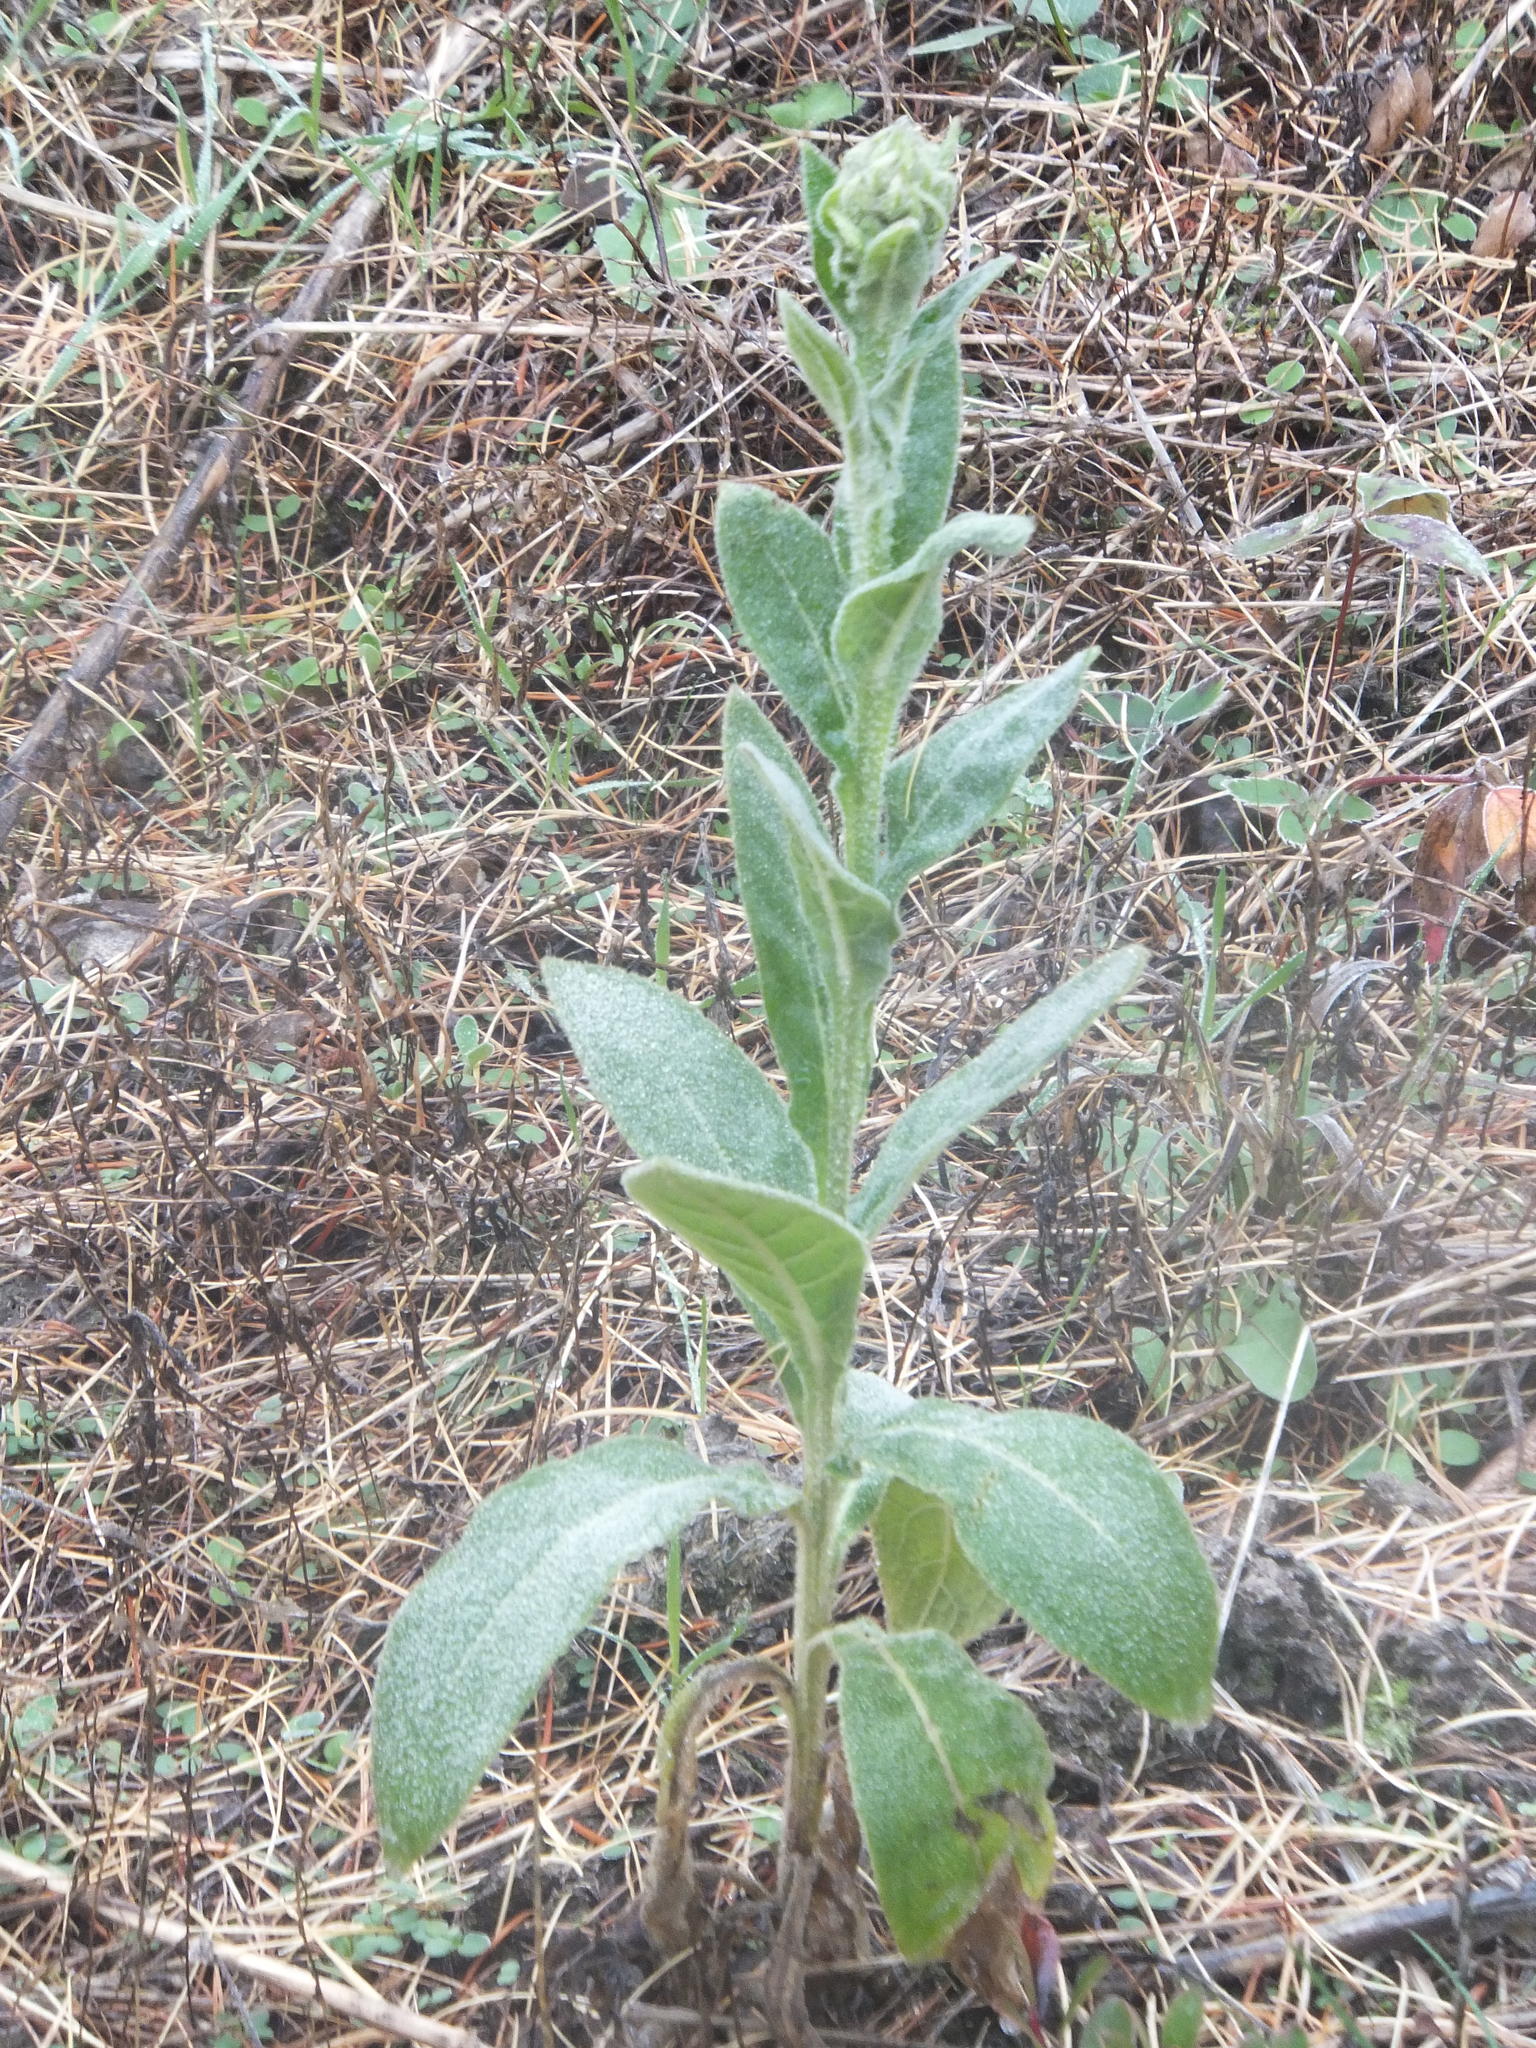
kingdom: Plantae
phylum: Tracheophyta
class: Magnoliopsida
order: Lamiales
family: Scrophulariaceae
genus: Verbascum
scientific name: Verbascum thapsus
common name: Common mullein
